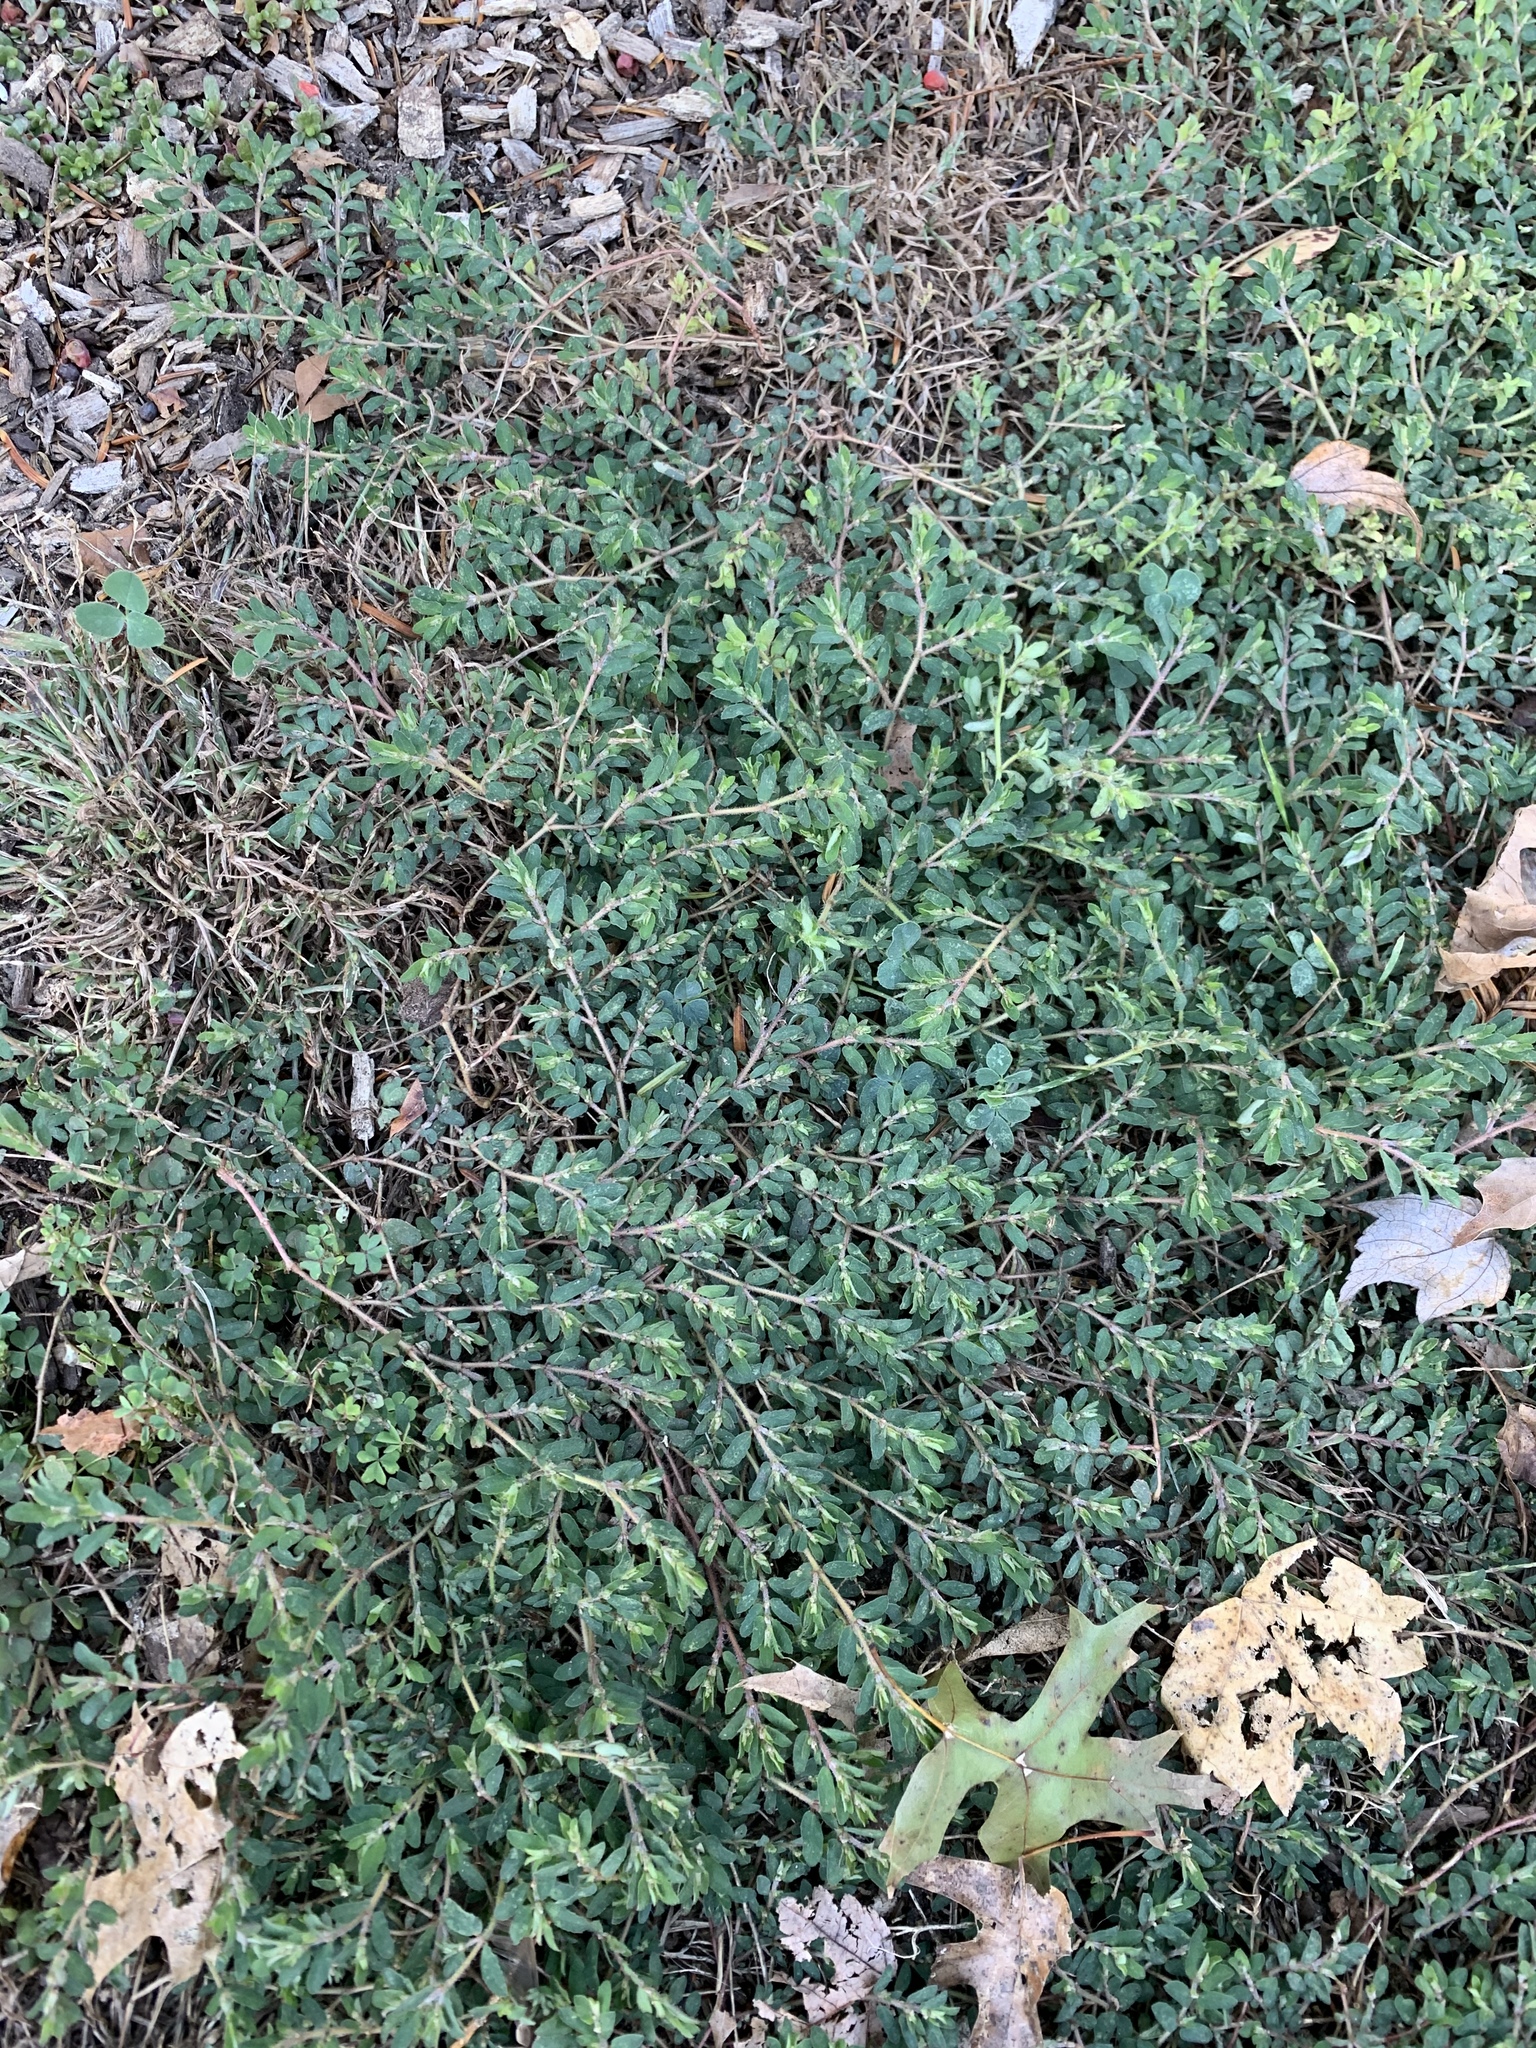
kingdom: Plantae
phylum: Tracheophyta
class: Magnoliopsida
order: Malpighiales
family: Euphorbiaceae
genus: Euphorbia
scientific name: Euphorbia maculata
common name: Spotted spurge
